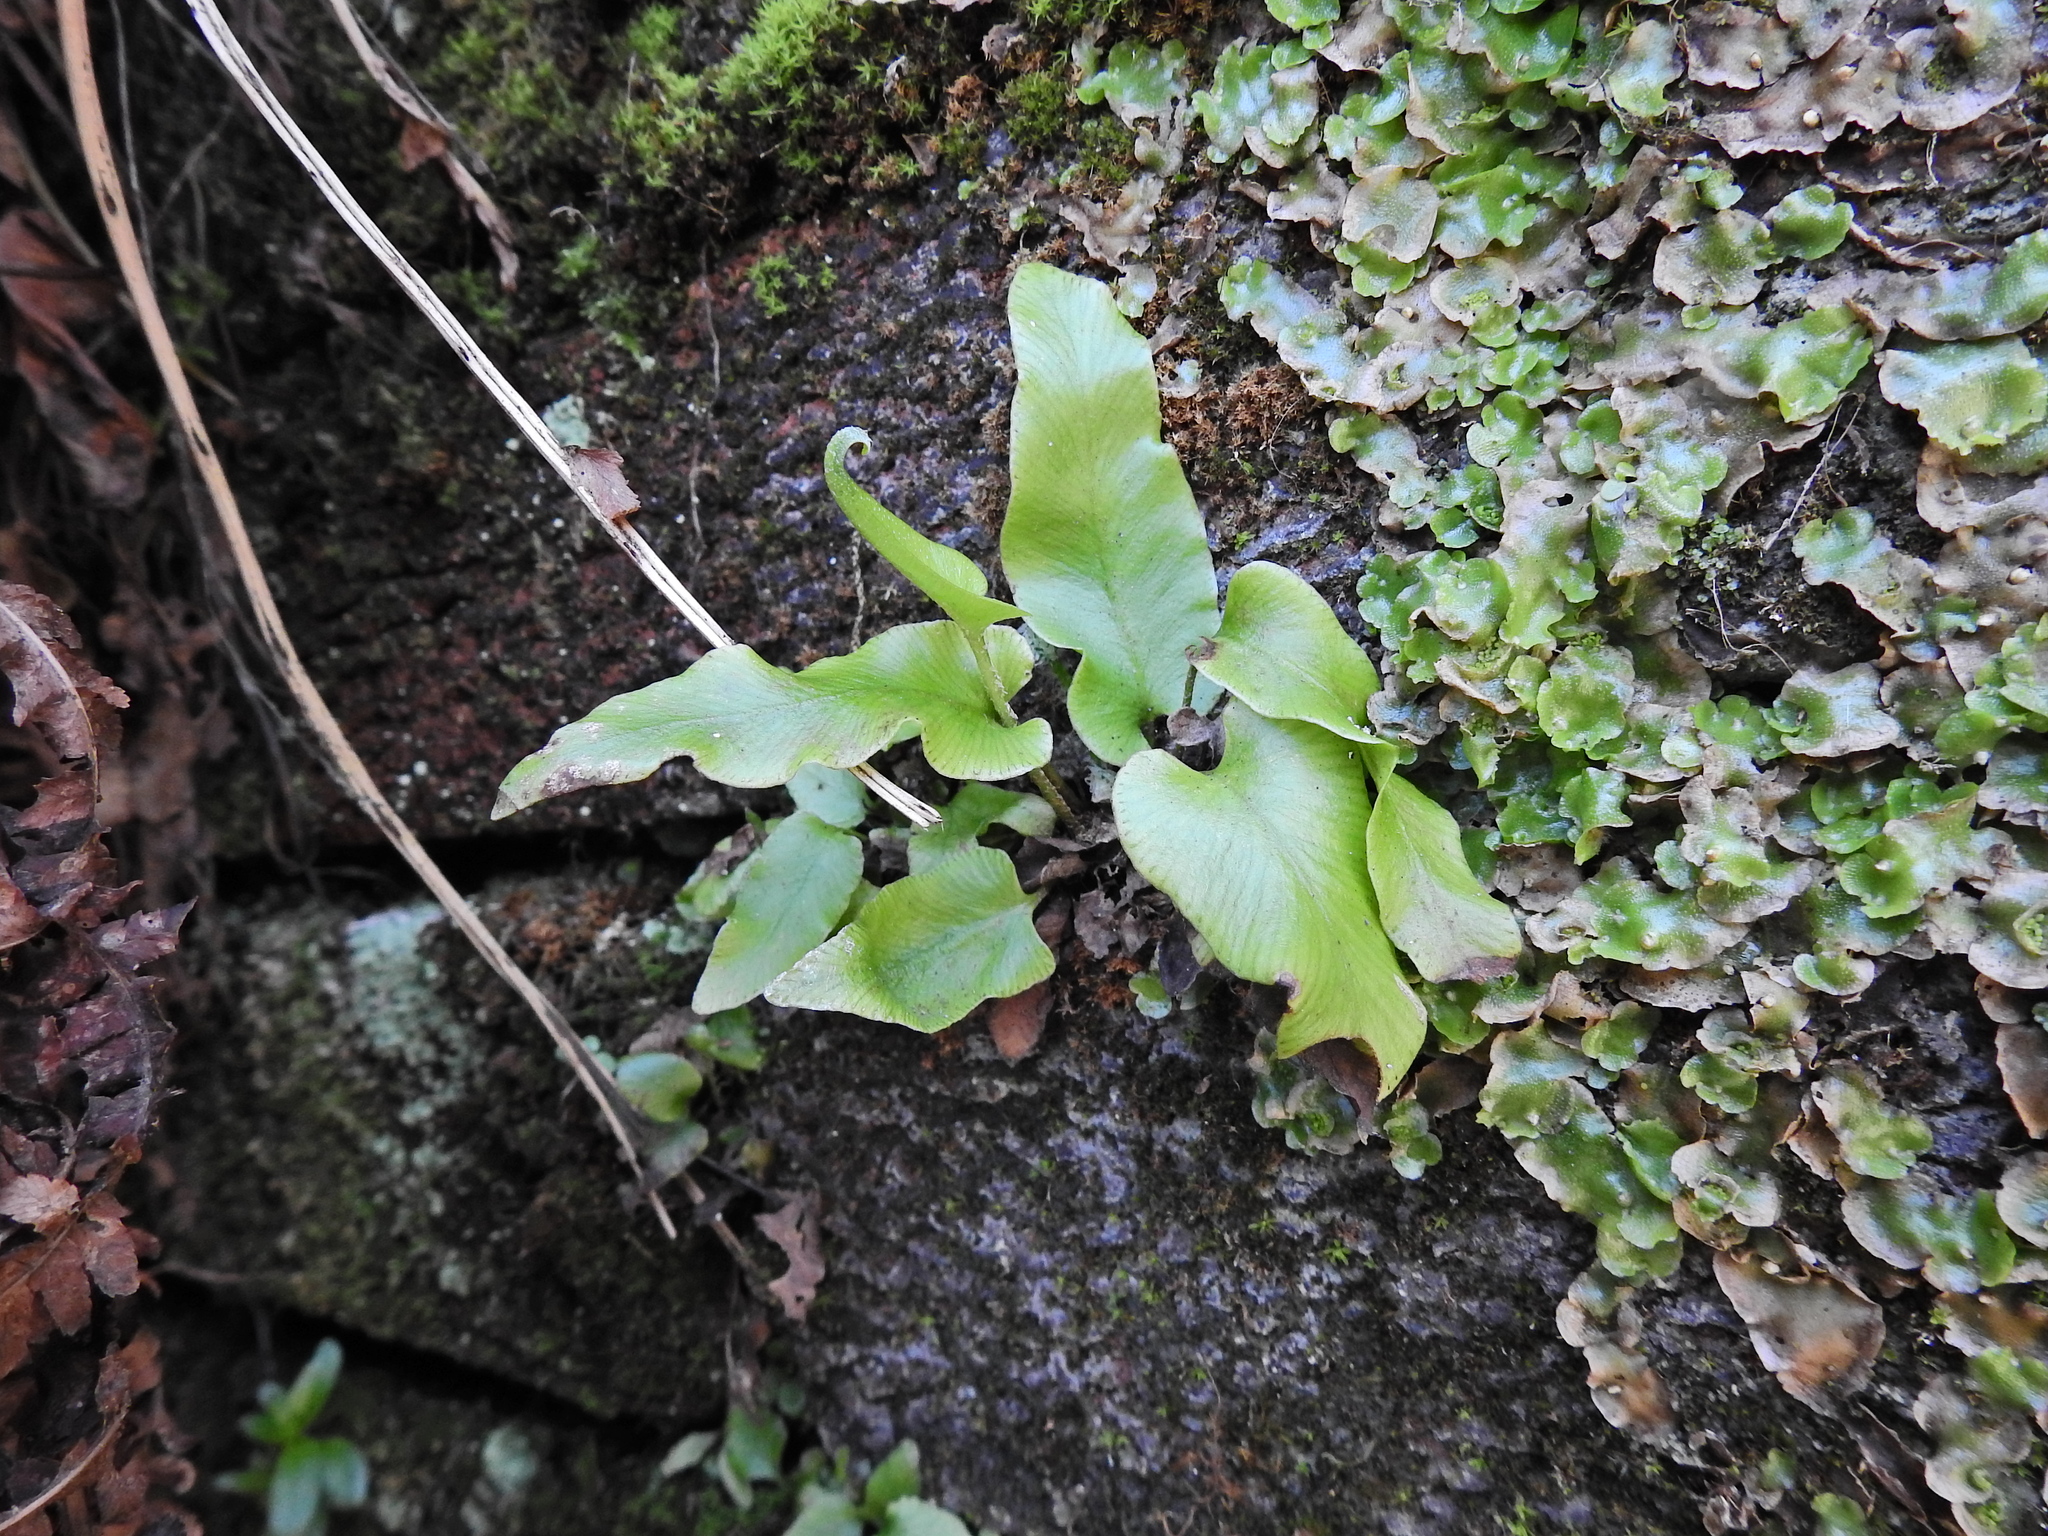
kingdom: Plantae
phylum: Tracheophyta
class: Polypodiopsida
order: Polypodiales
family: Aspleniaceae
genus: Asplenium
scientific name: Asplenium scolopendrium
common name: Hart's-tongue fern
